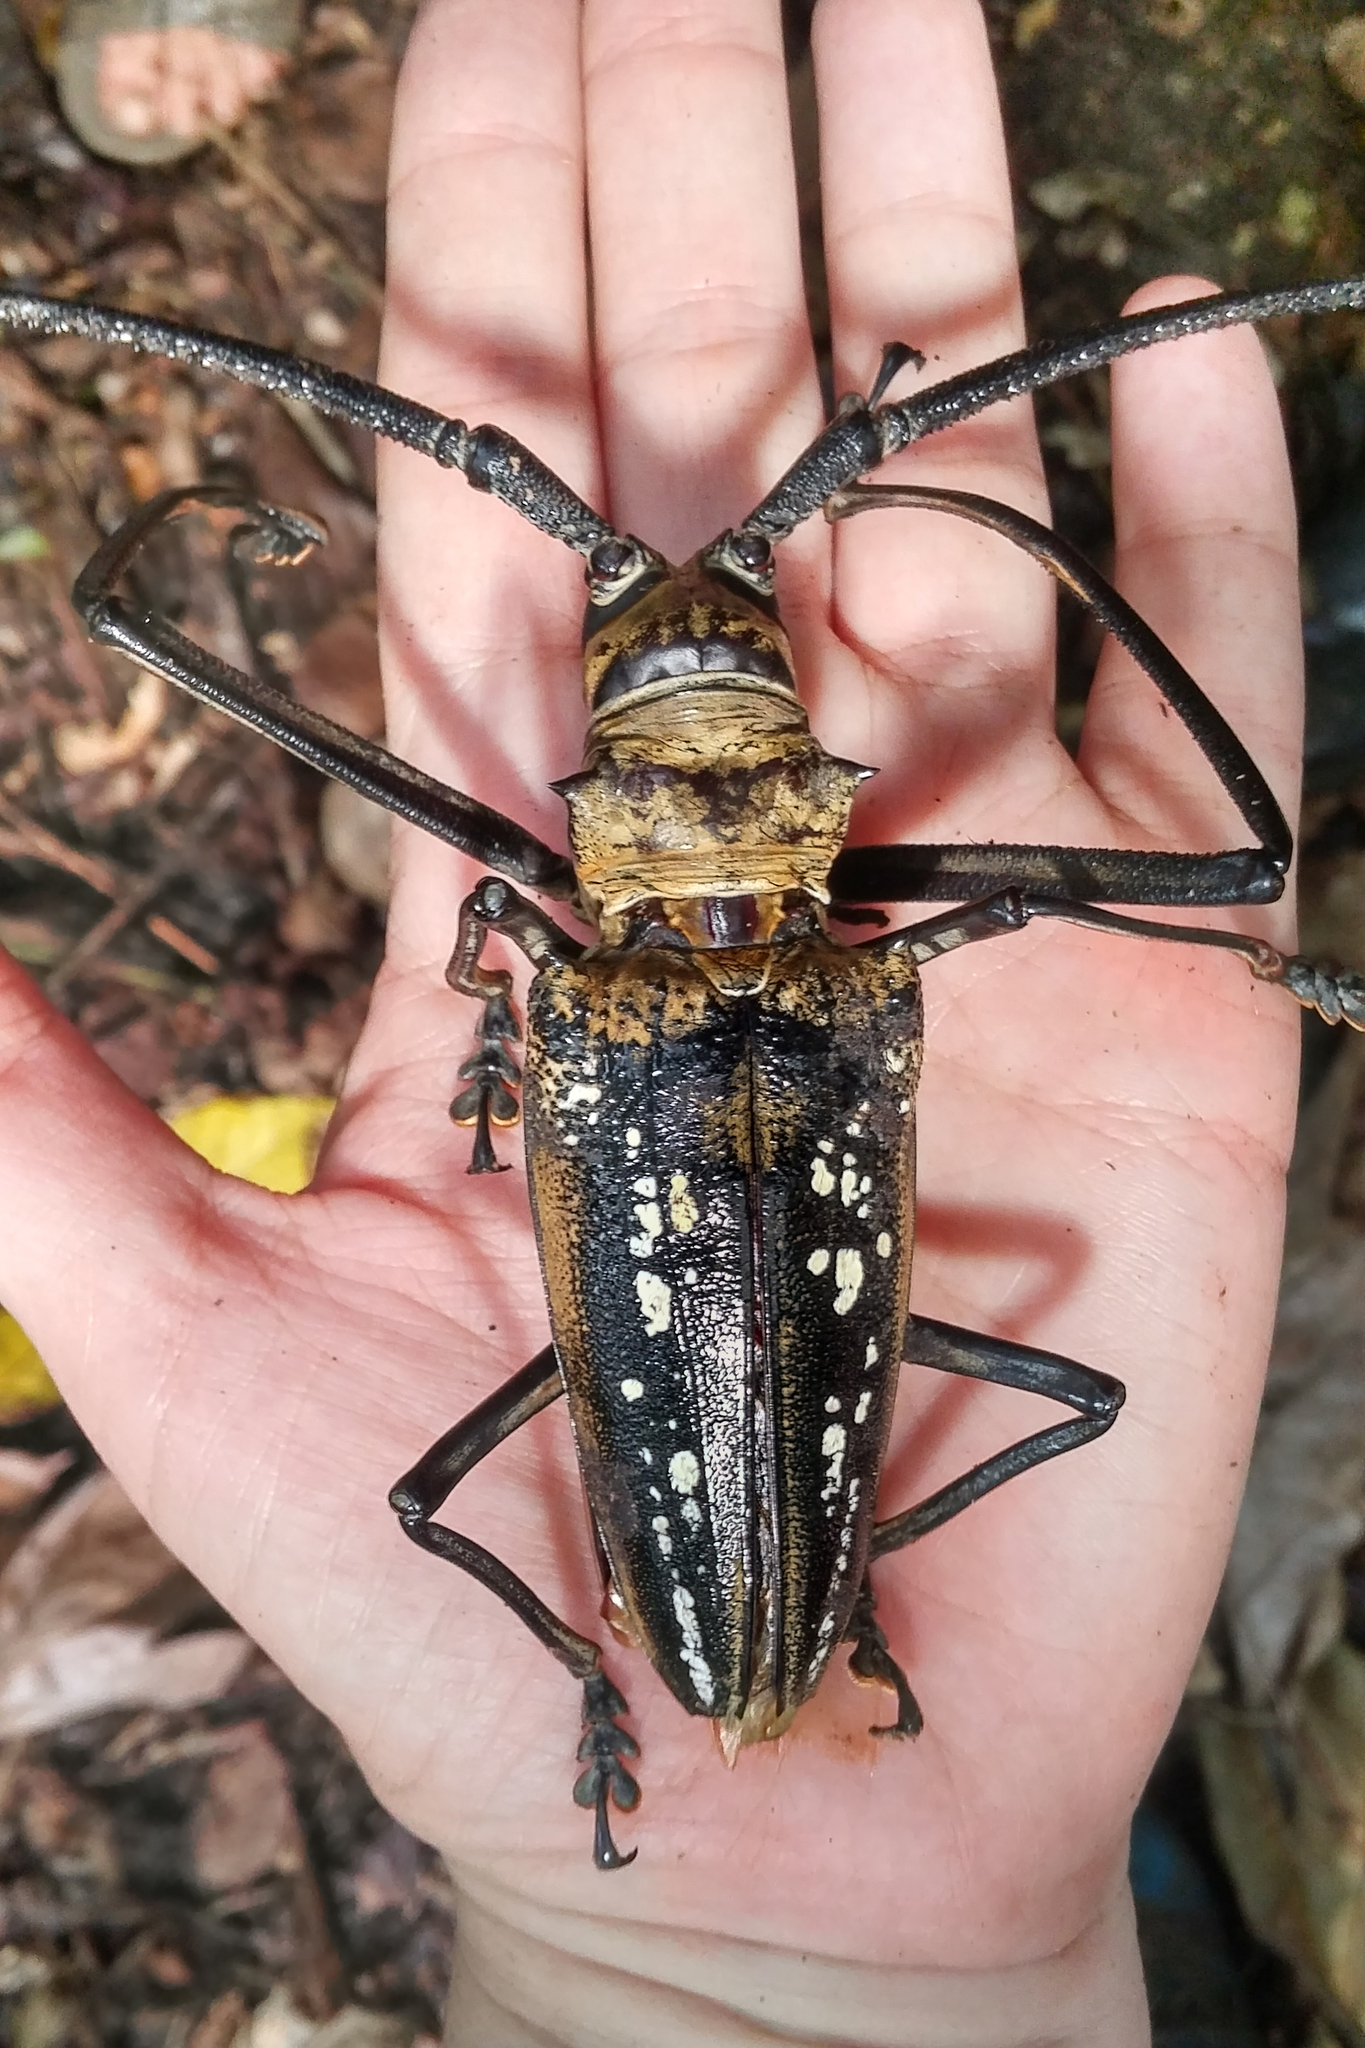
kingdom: Animalia
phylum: Arthropoda
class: Insecta
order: Coleoptera
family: Cerambycidae
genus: Batocera
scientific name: Batocera wallacei
